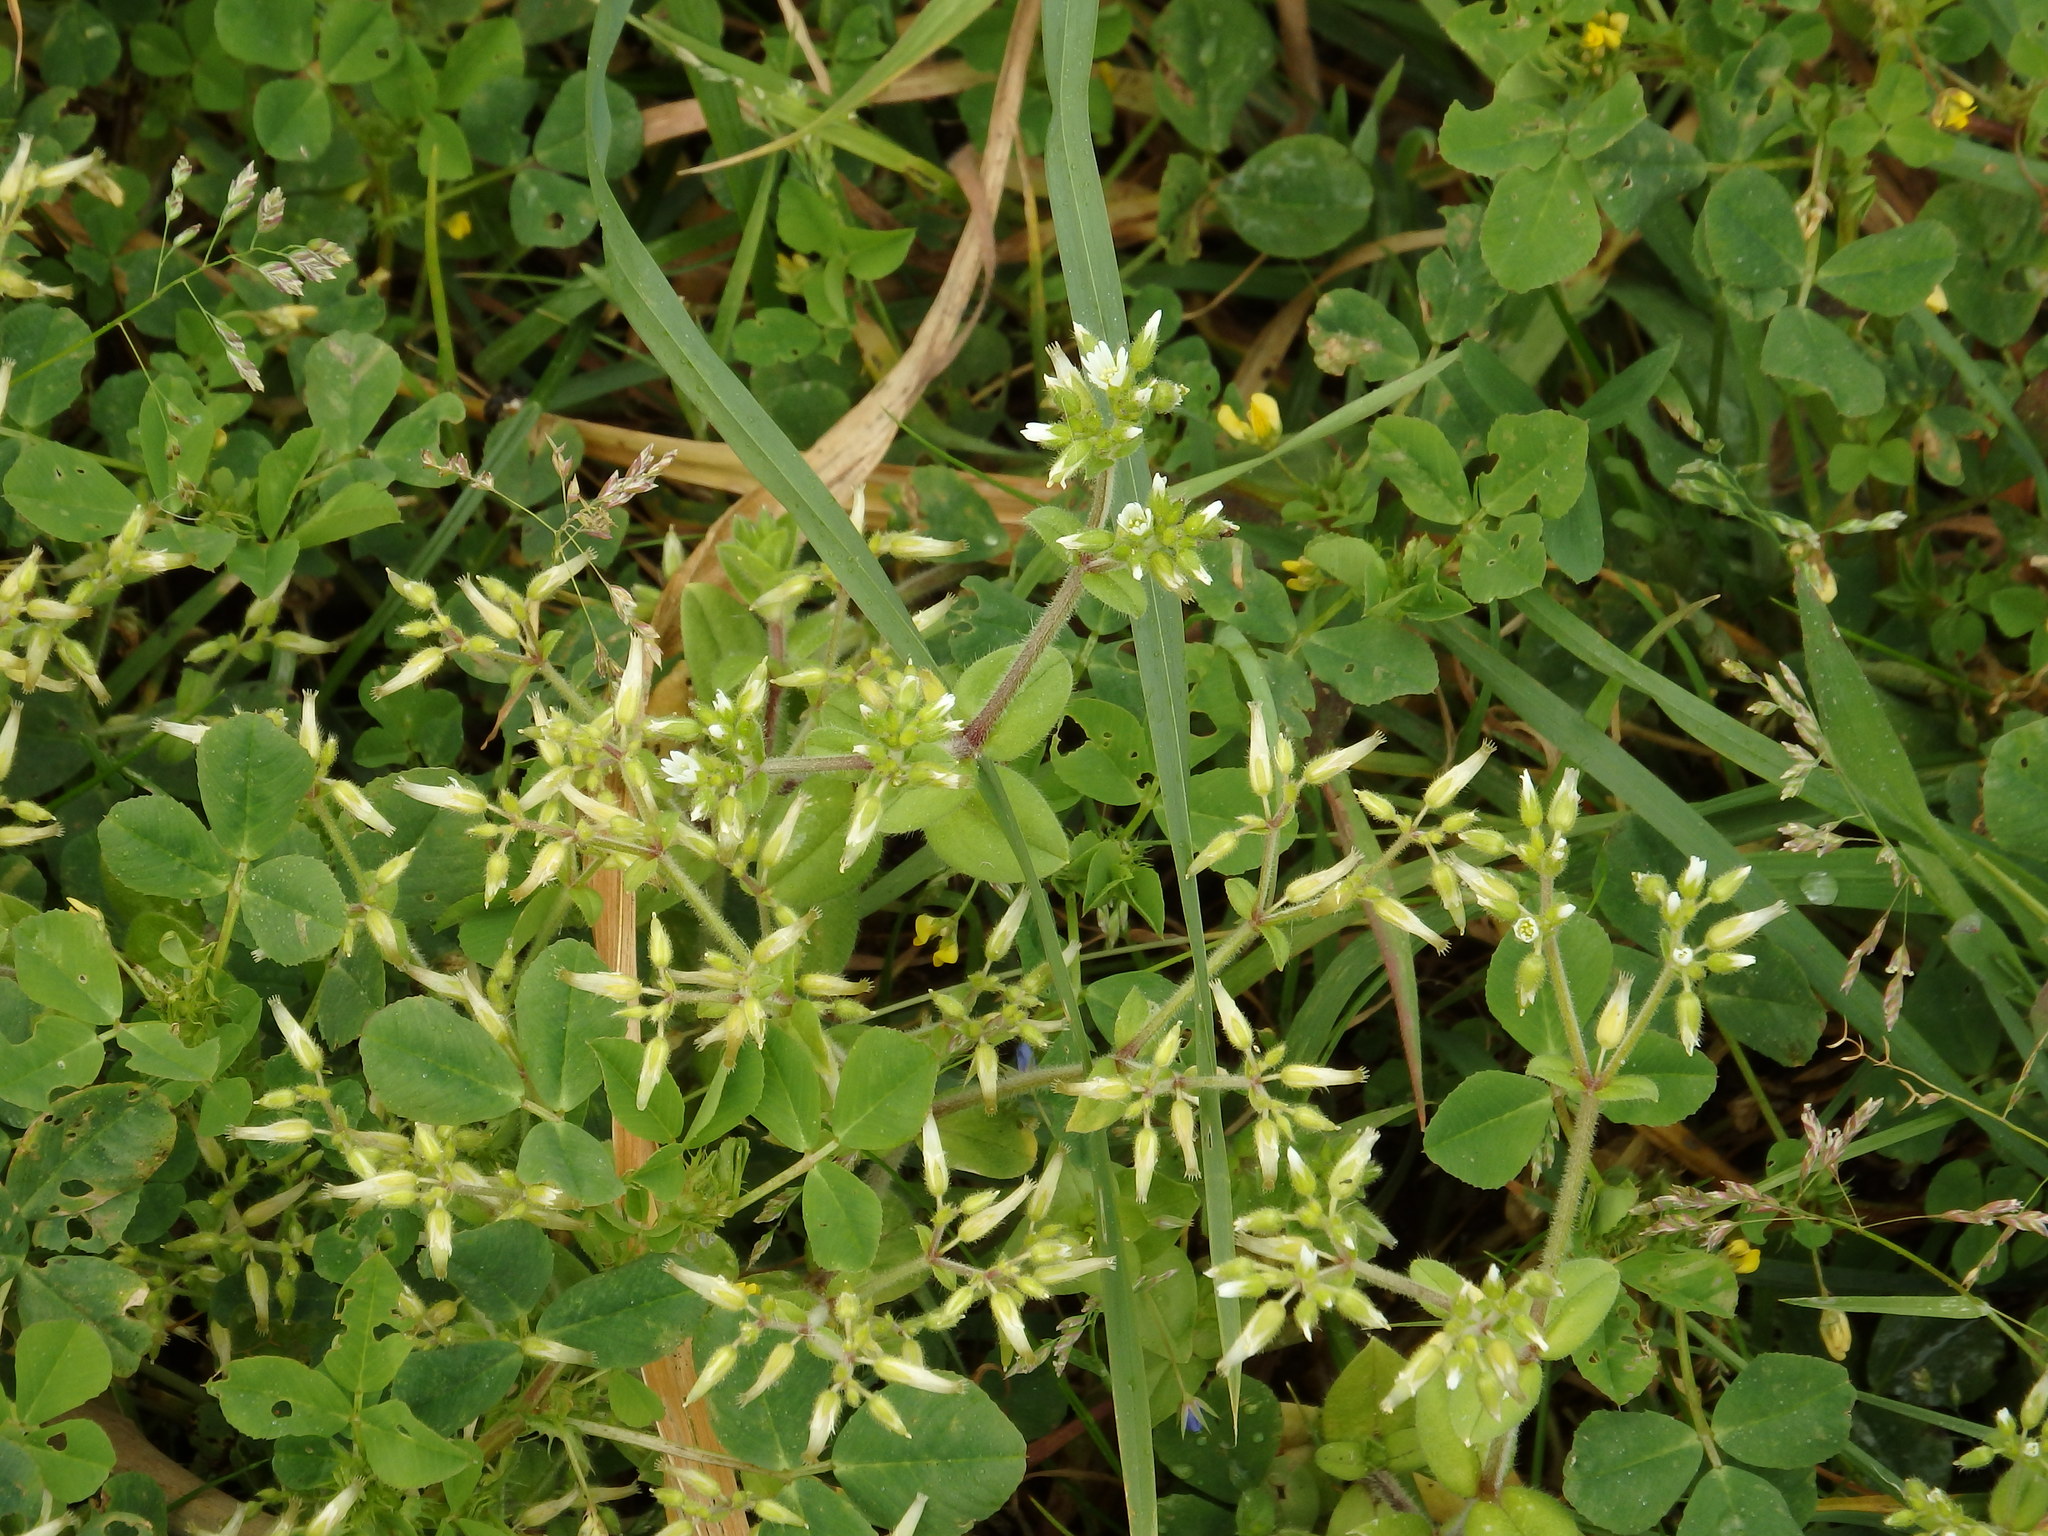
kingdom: Plantae
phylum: Tracheophyta
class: Magnoliopsida
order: Caryophyllales
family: Caryophyllaceae
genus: Cerastium
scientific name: Cerastium glomeratum
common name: Sticky chickweed
